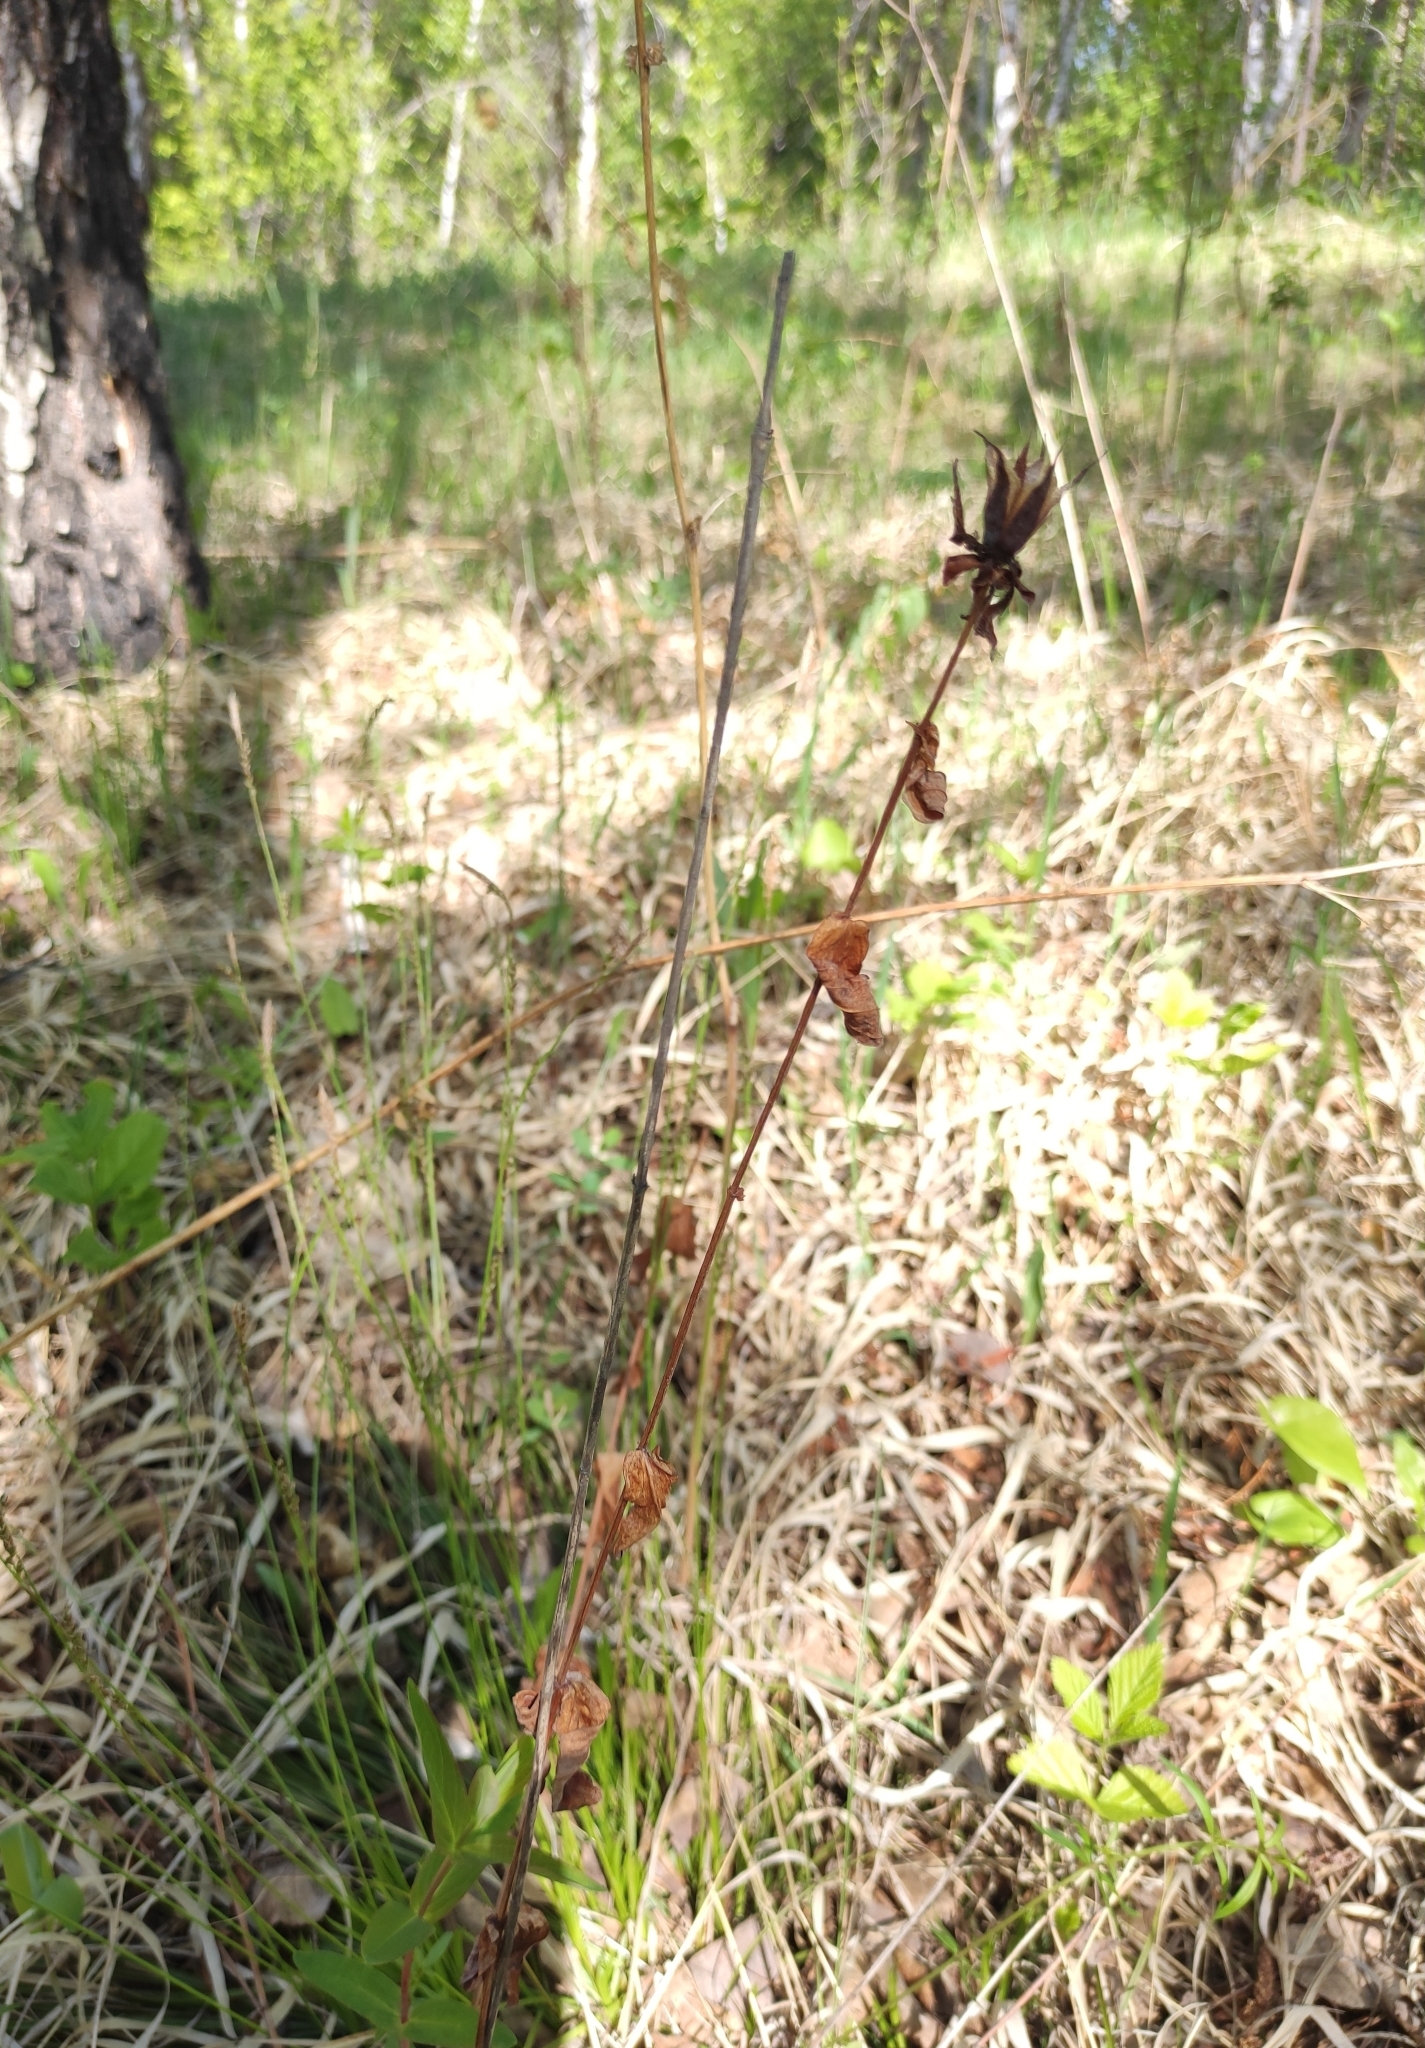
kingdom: Plantae
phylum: Tracheophyta
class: Magnoliopsida
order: Malpighiales
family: Hypericaceae
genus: Hypericum
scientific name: Hypericum ascyron
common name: Giant st. john's-wort
